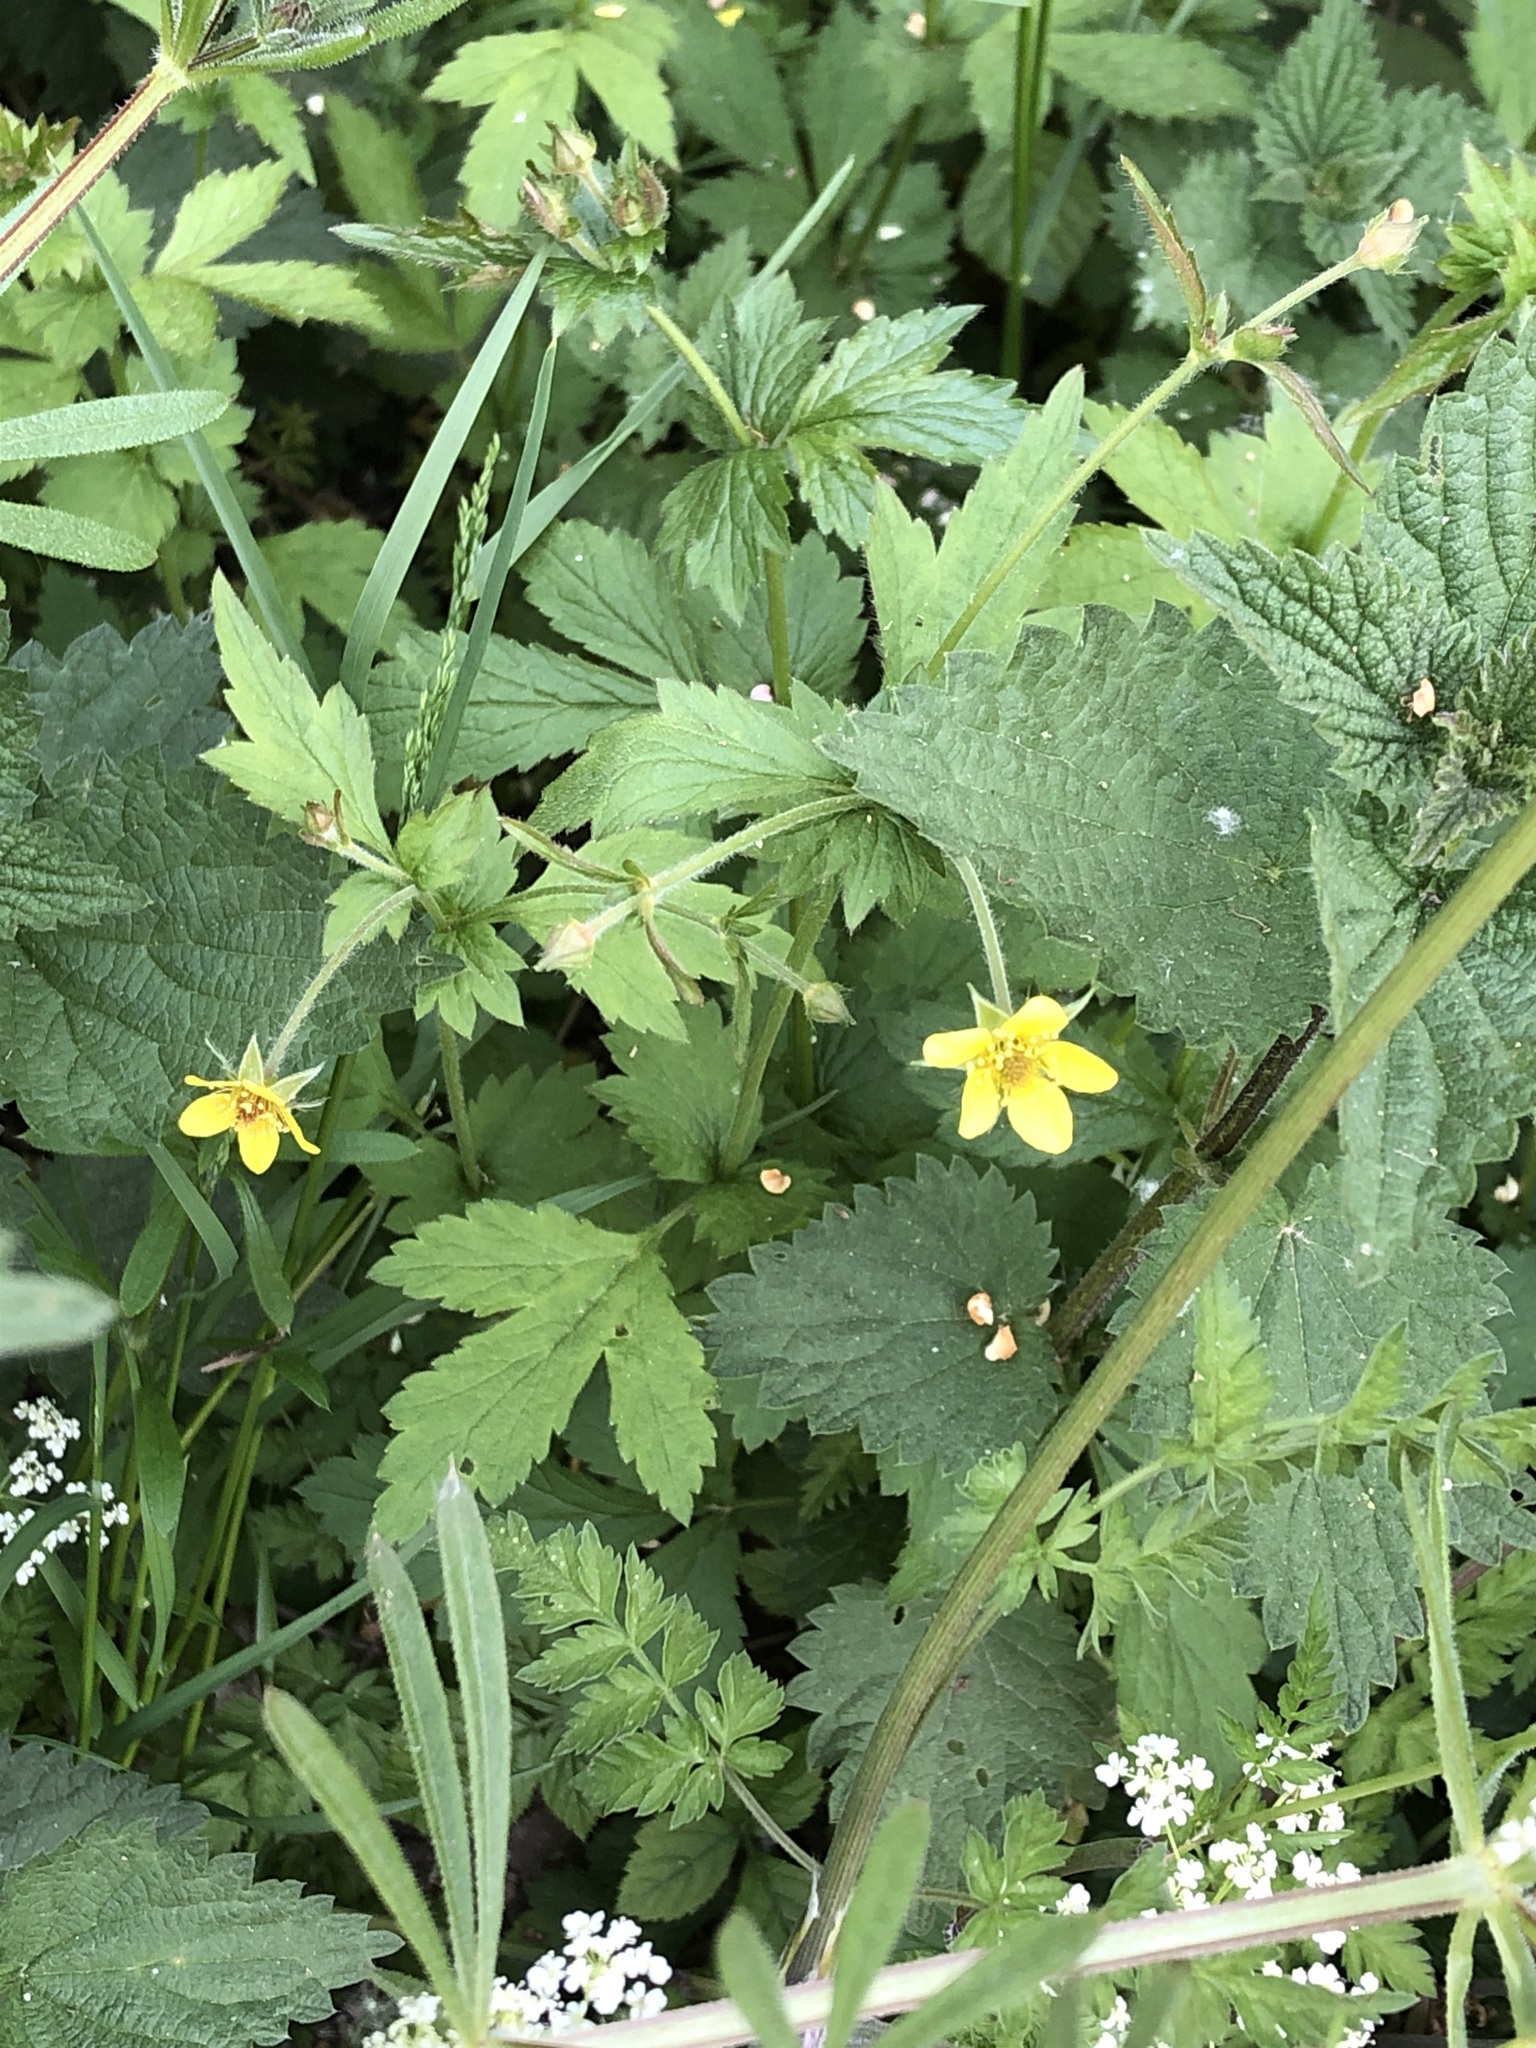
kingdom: Plantae
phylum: Tracheophyta
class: Magnoliopsida
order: Rosales
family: Rosaceae
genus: Geum
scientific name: Geum urbanum
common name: Wood avens
